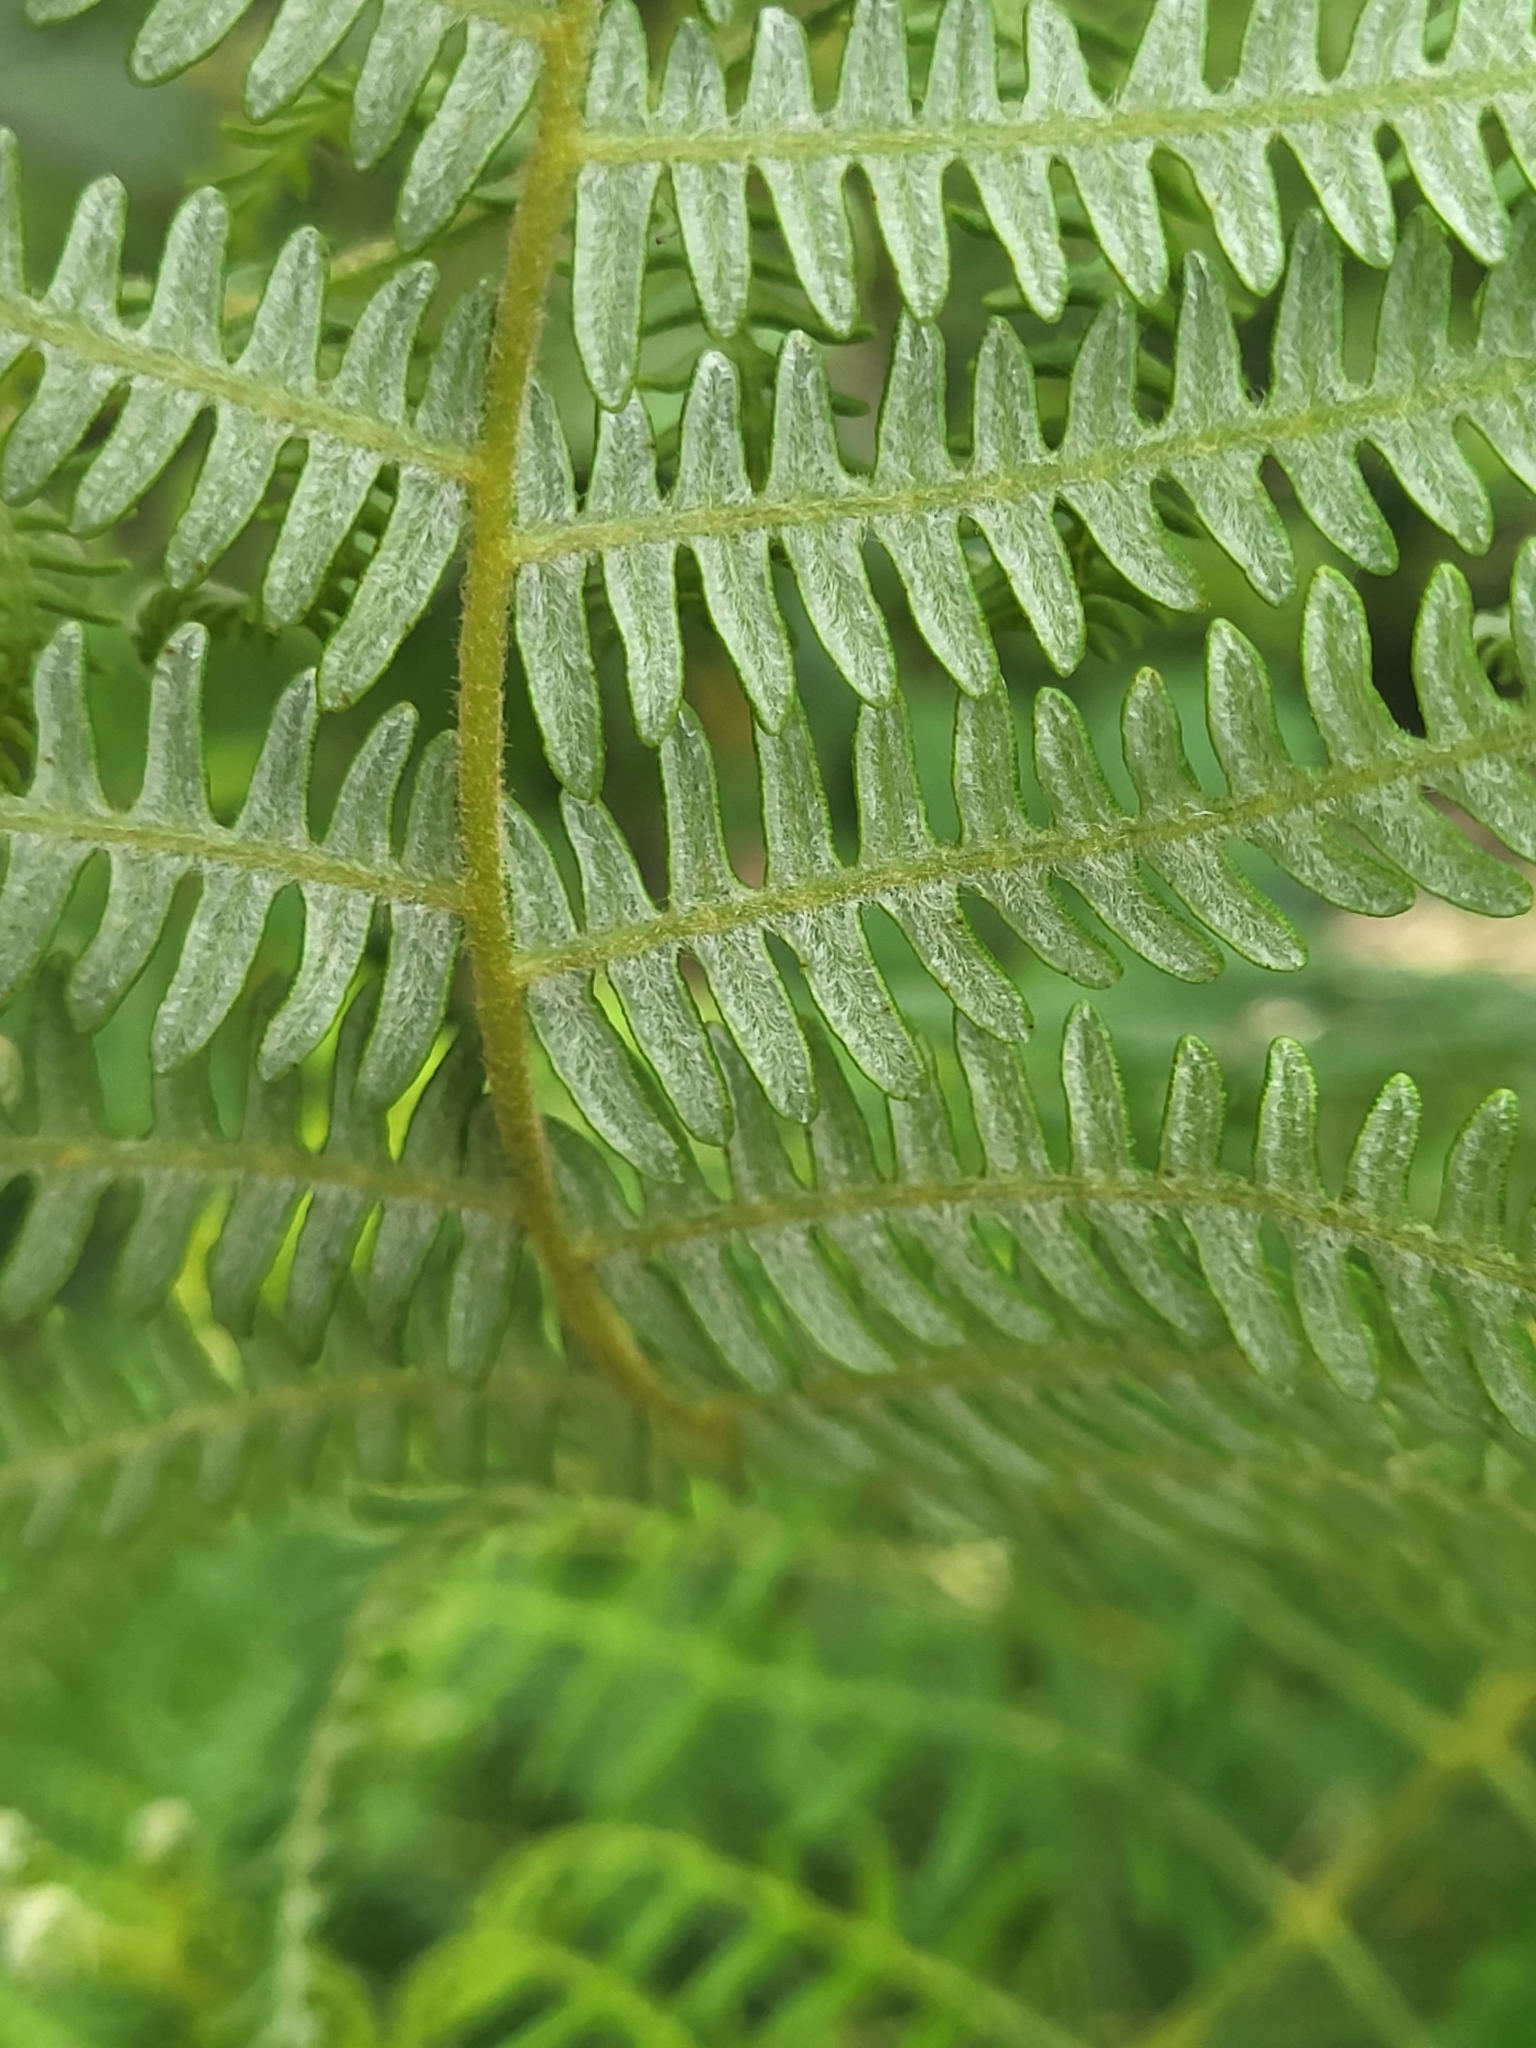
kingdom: Plantae
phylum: Tracheophyta
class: Polypodiopsida
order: Polypodiales
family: Dennstaedtiaceae
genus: Pteridium
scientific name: Pteridium aquilinum
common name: Bracken
